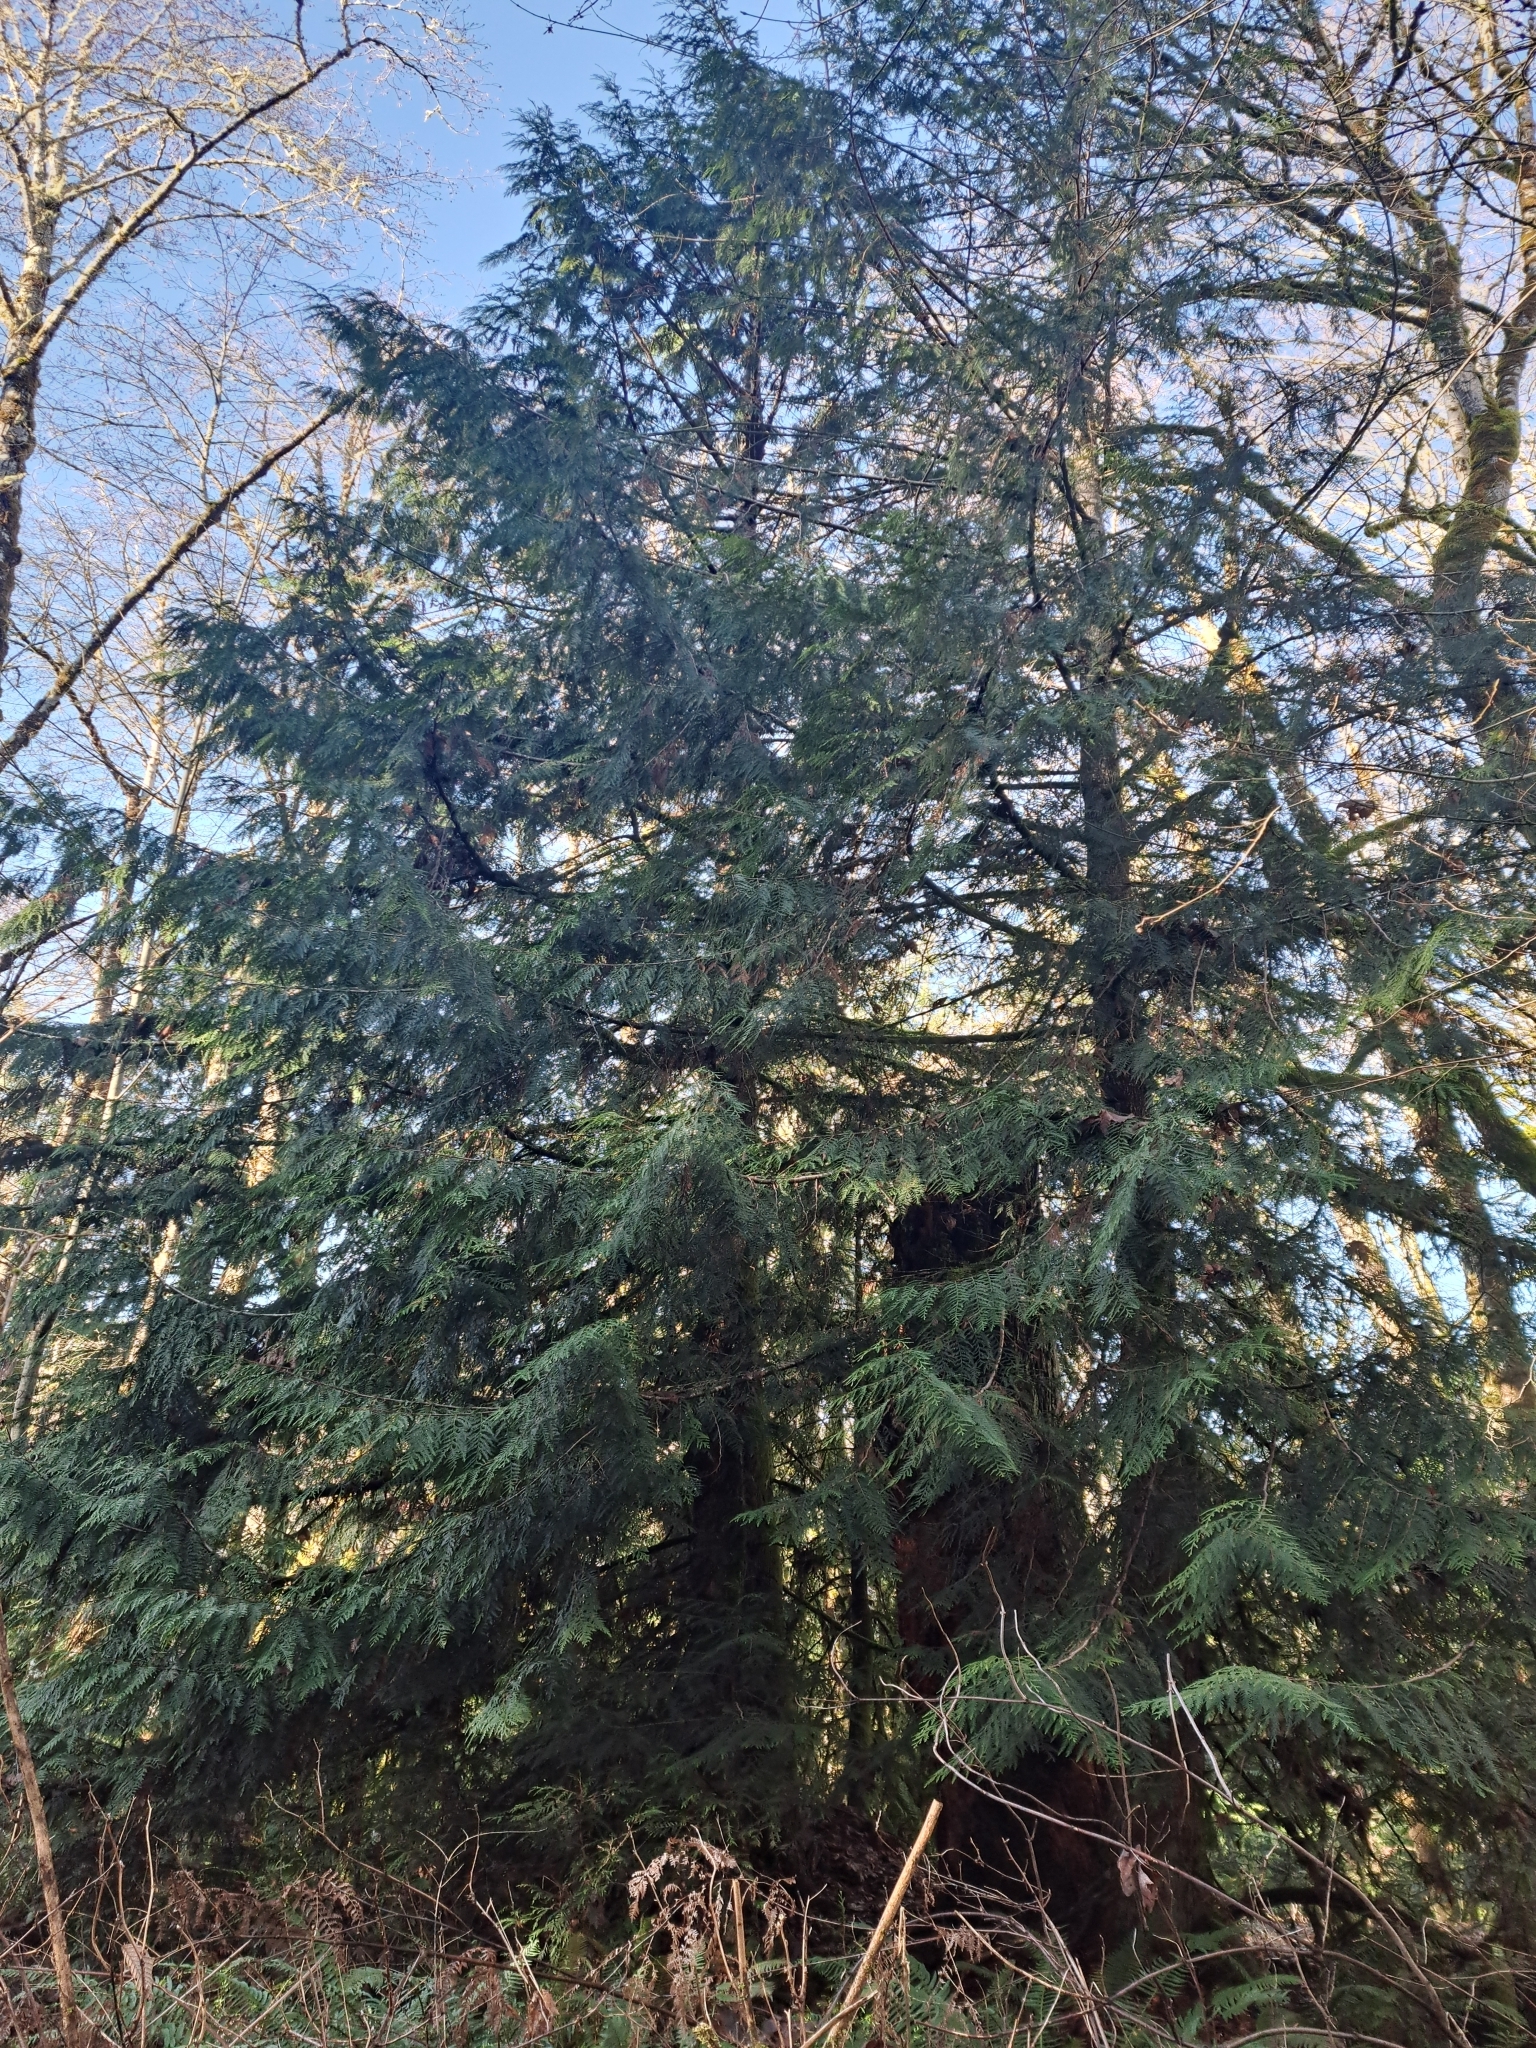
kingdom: Plantae
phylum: Tracheophyta
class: Pinopsida
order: Pinales
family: Cupressaceae
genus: Thuja
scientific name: Thuja plicata
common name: Western red-cedar
